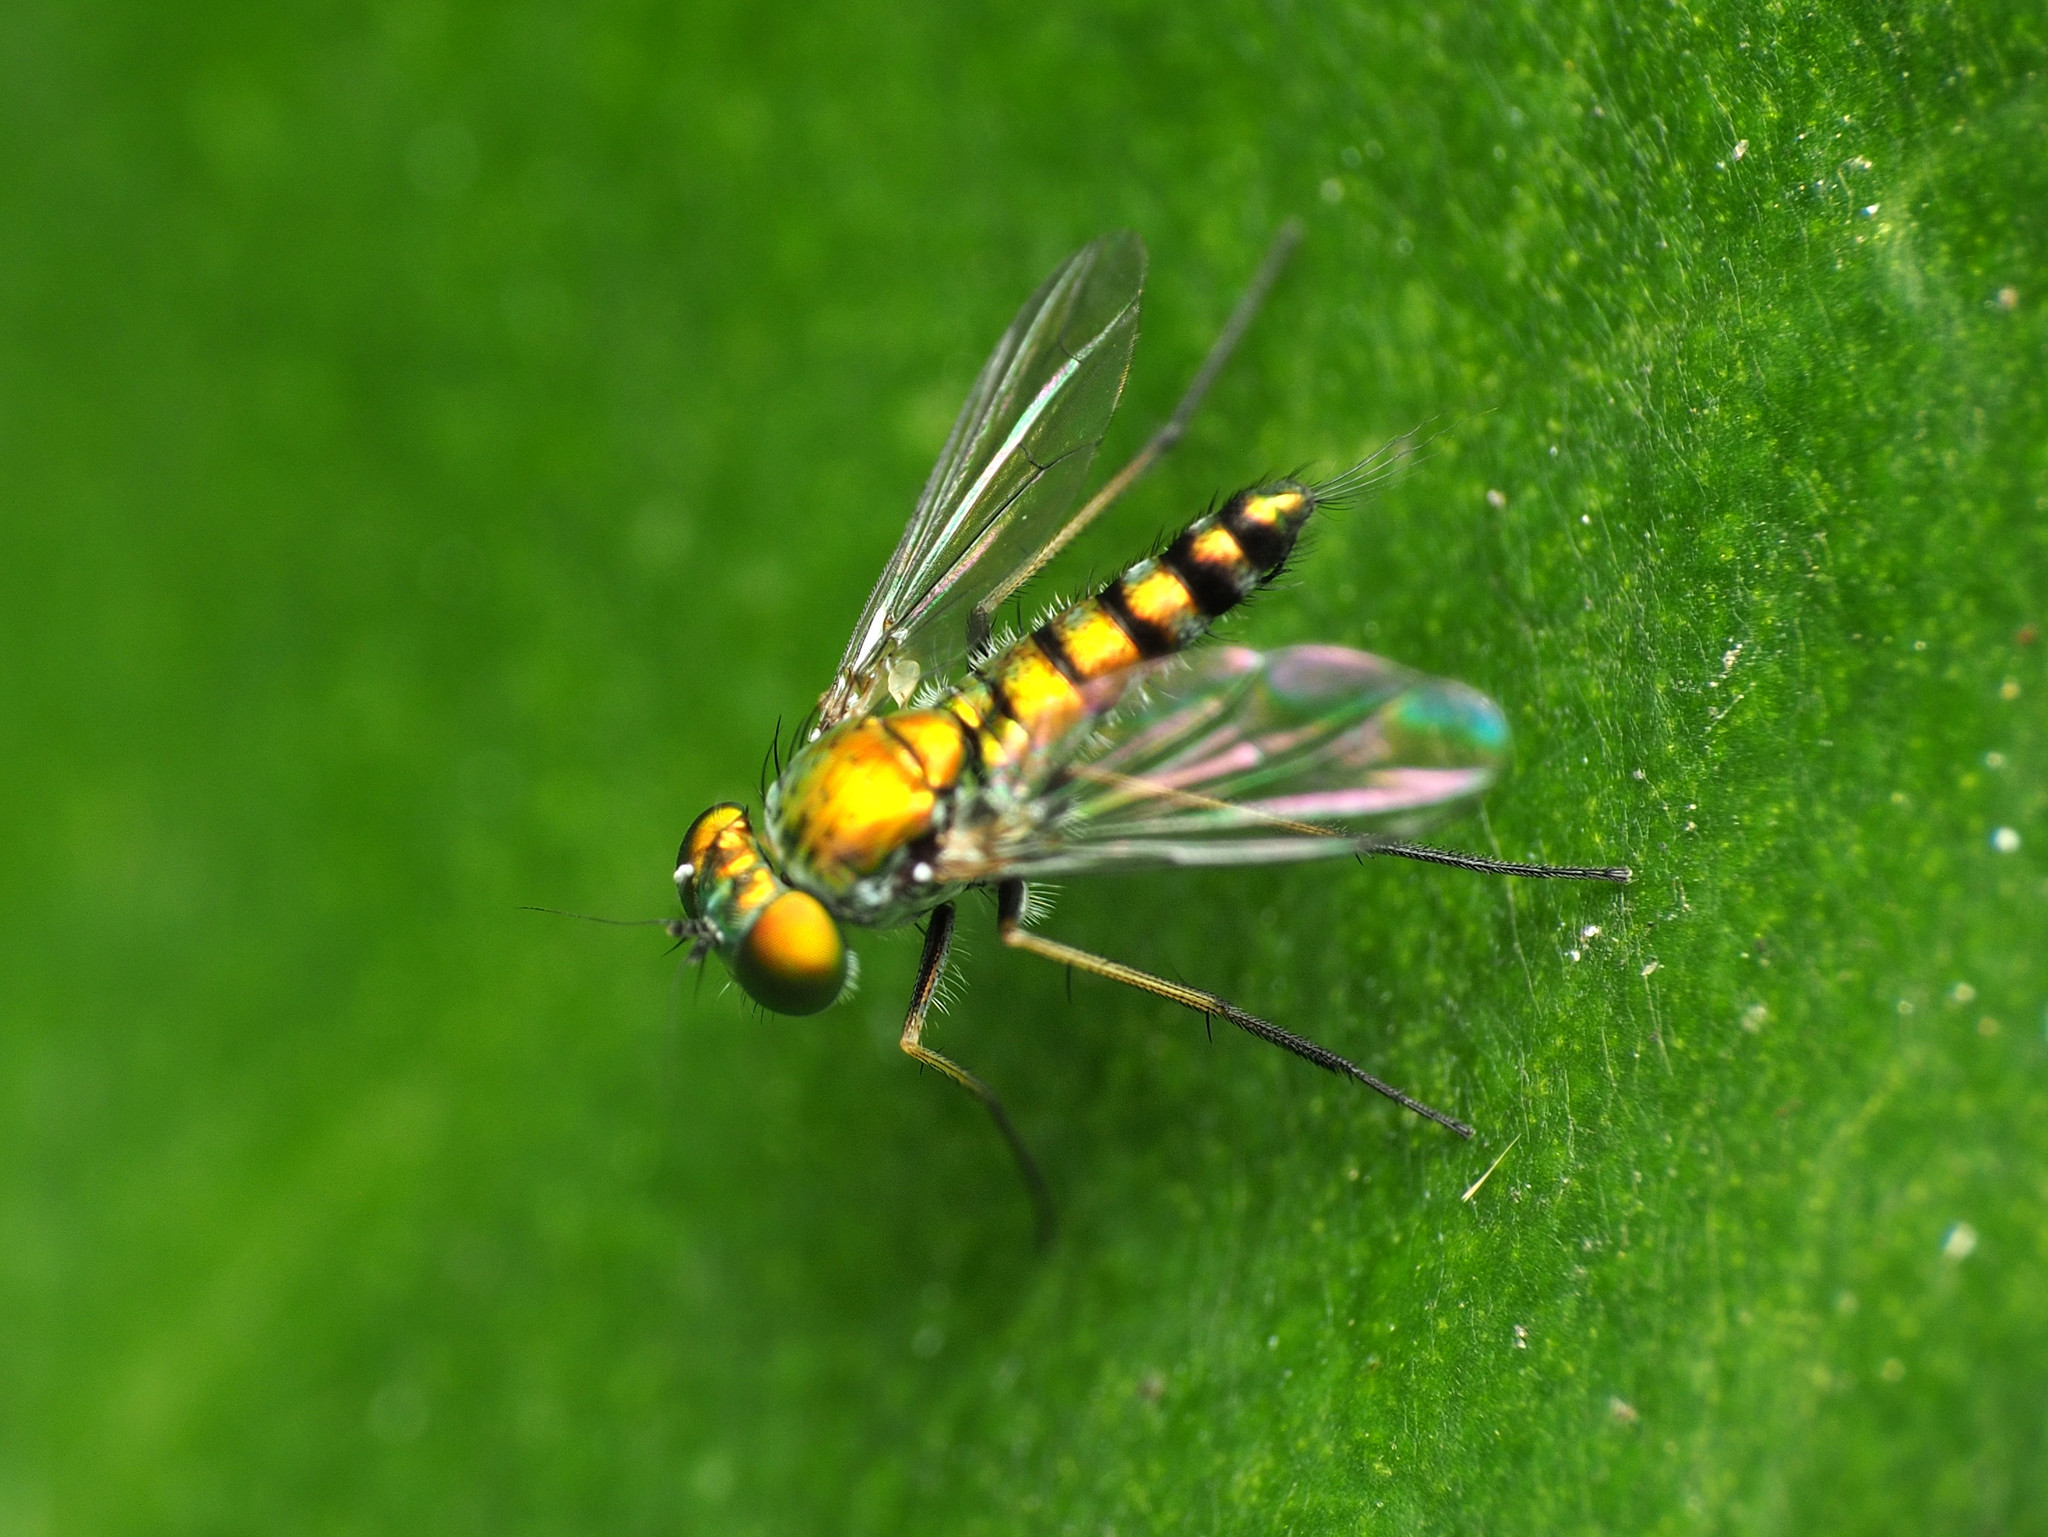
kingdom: Animalia
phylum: Arthropoda
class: Insecta
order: Diptera
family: Dolichopodidae
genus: Condylostylus
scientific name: Condylostylus caudatus
